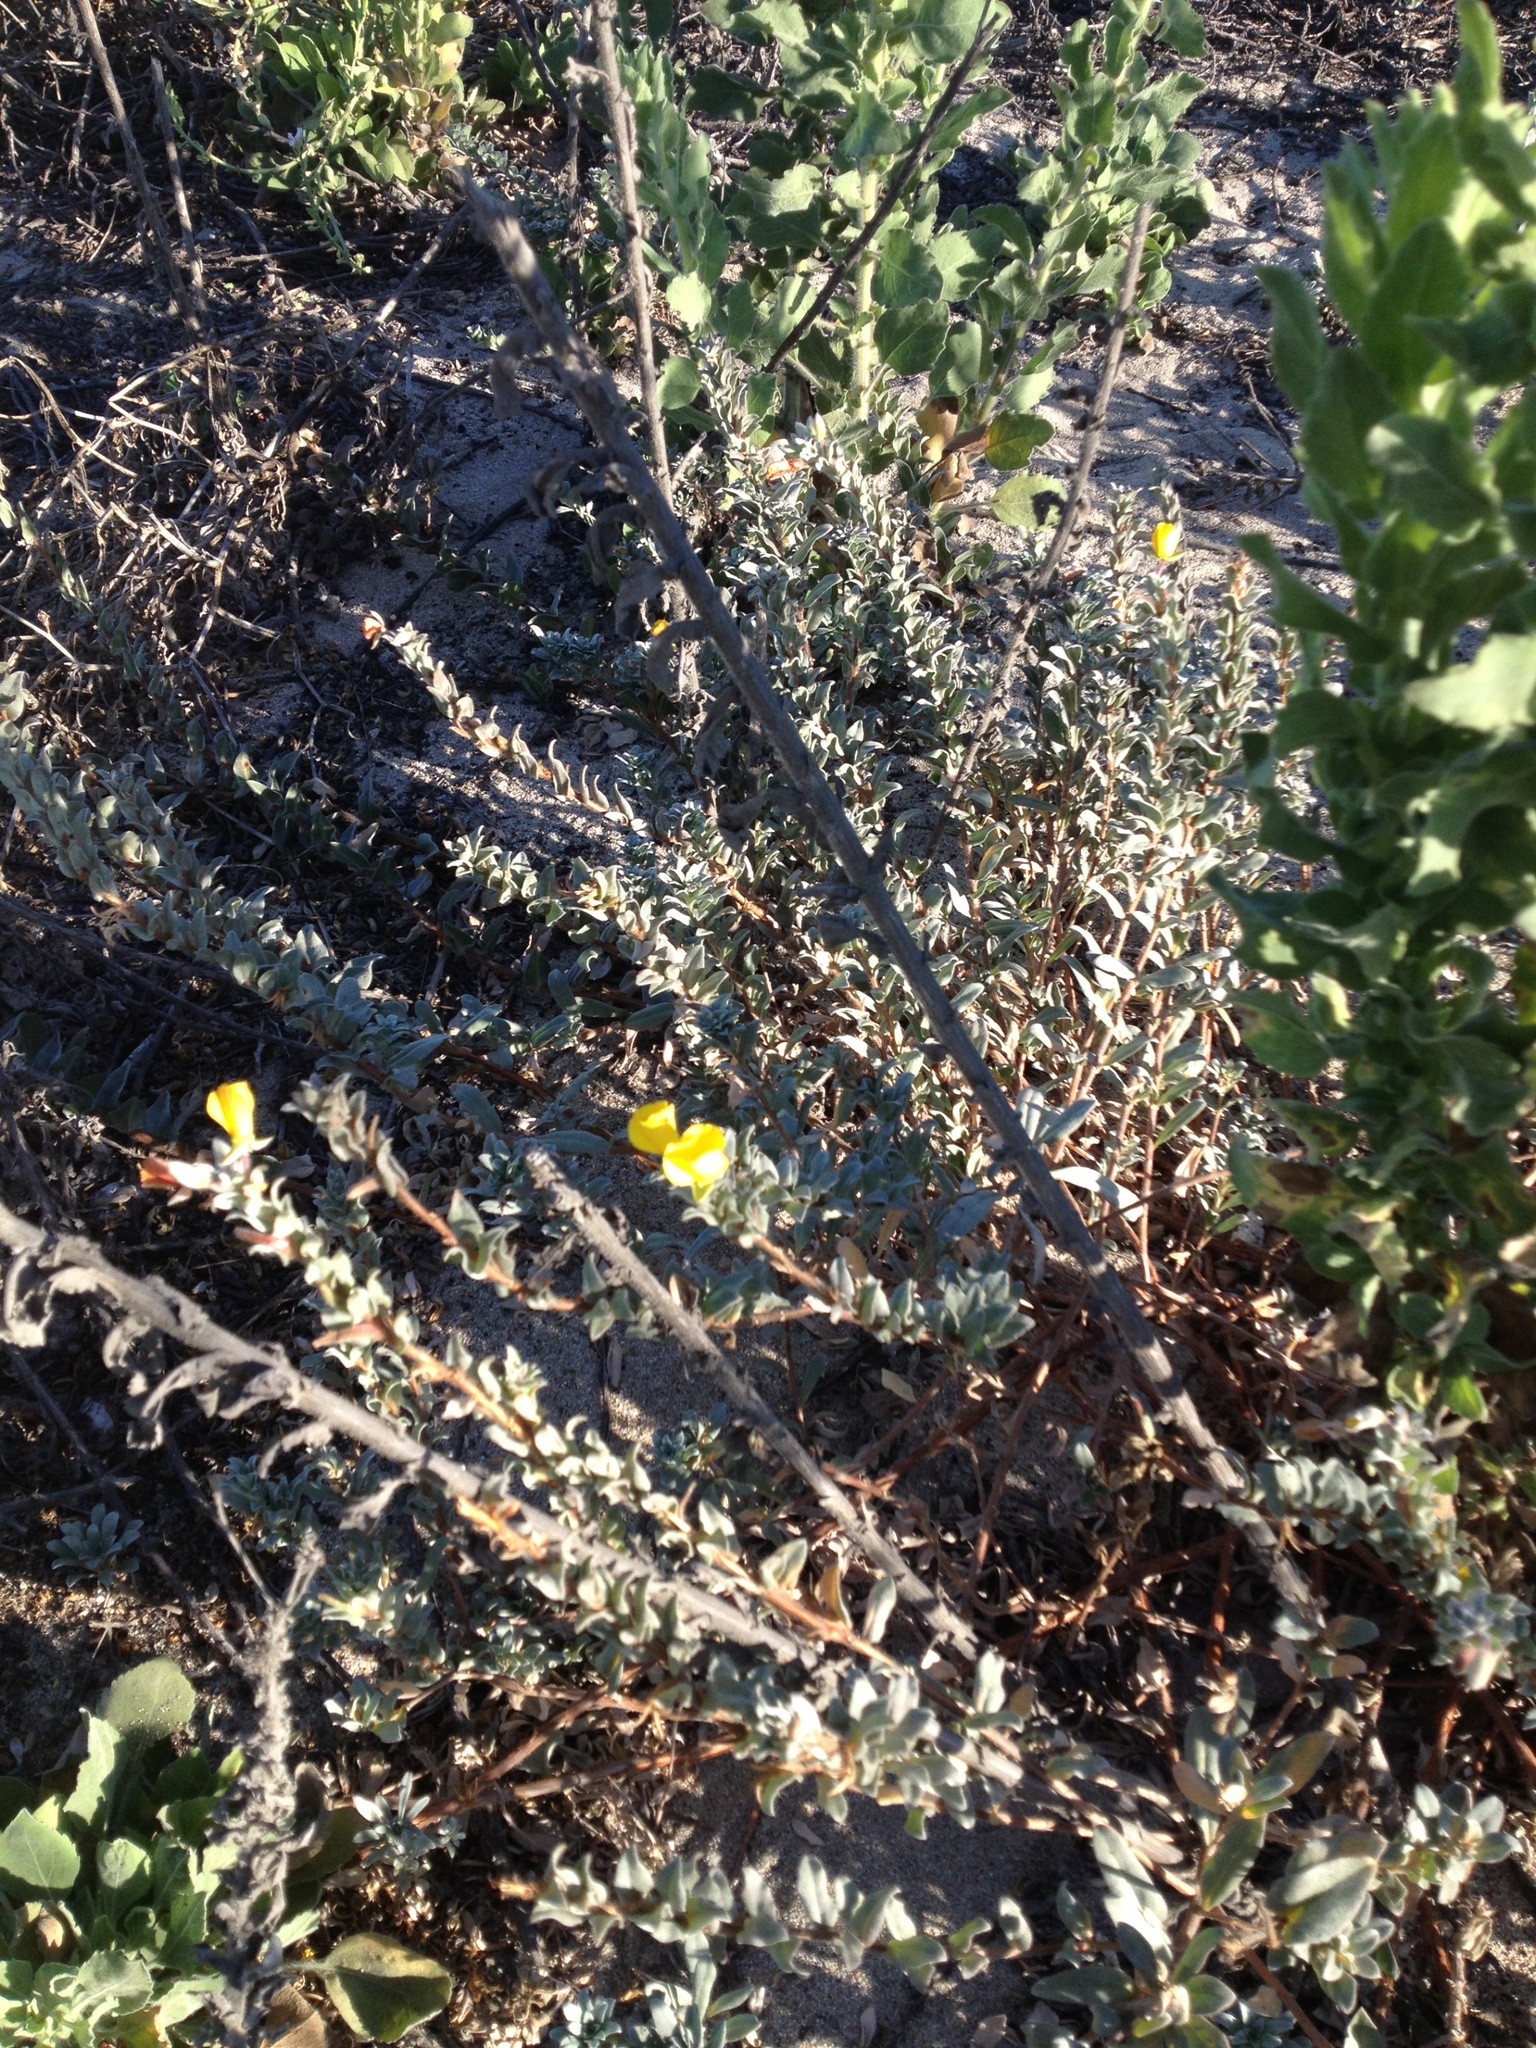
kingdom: Plantae
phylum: Tracheophyta
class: Magnoliopsida
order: Myrtales
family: Onagraceae
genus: Camissoniopsis
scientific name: Camissoniopsis cheiranthifolia
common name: Beach suncup
